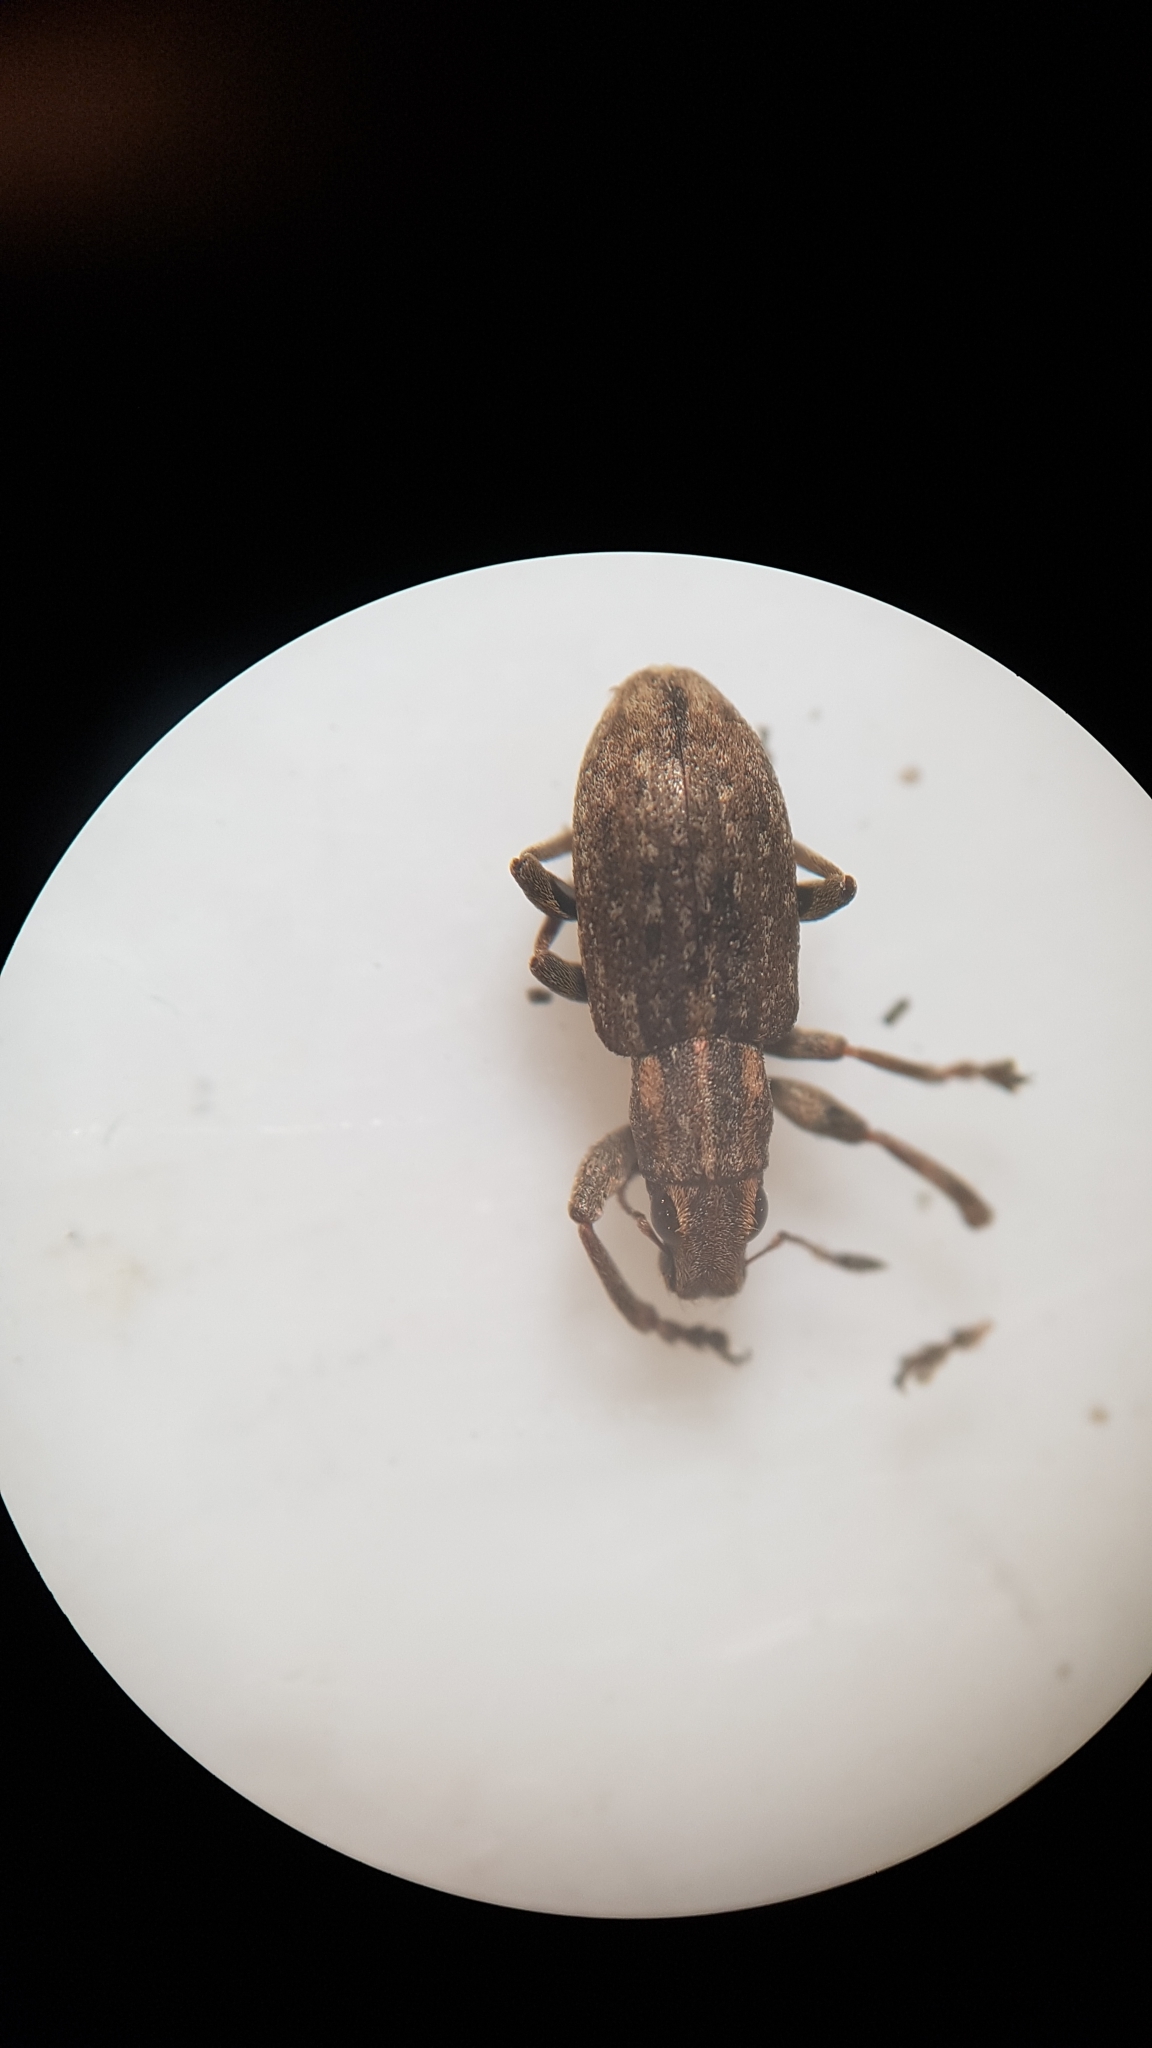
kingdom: Animalia
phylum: Arthropoda
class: Insecta
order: Coleoptera
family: Curculionidae
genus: Sitona
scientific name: Sitona obsoletus
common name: Weevil
